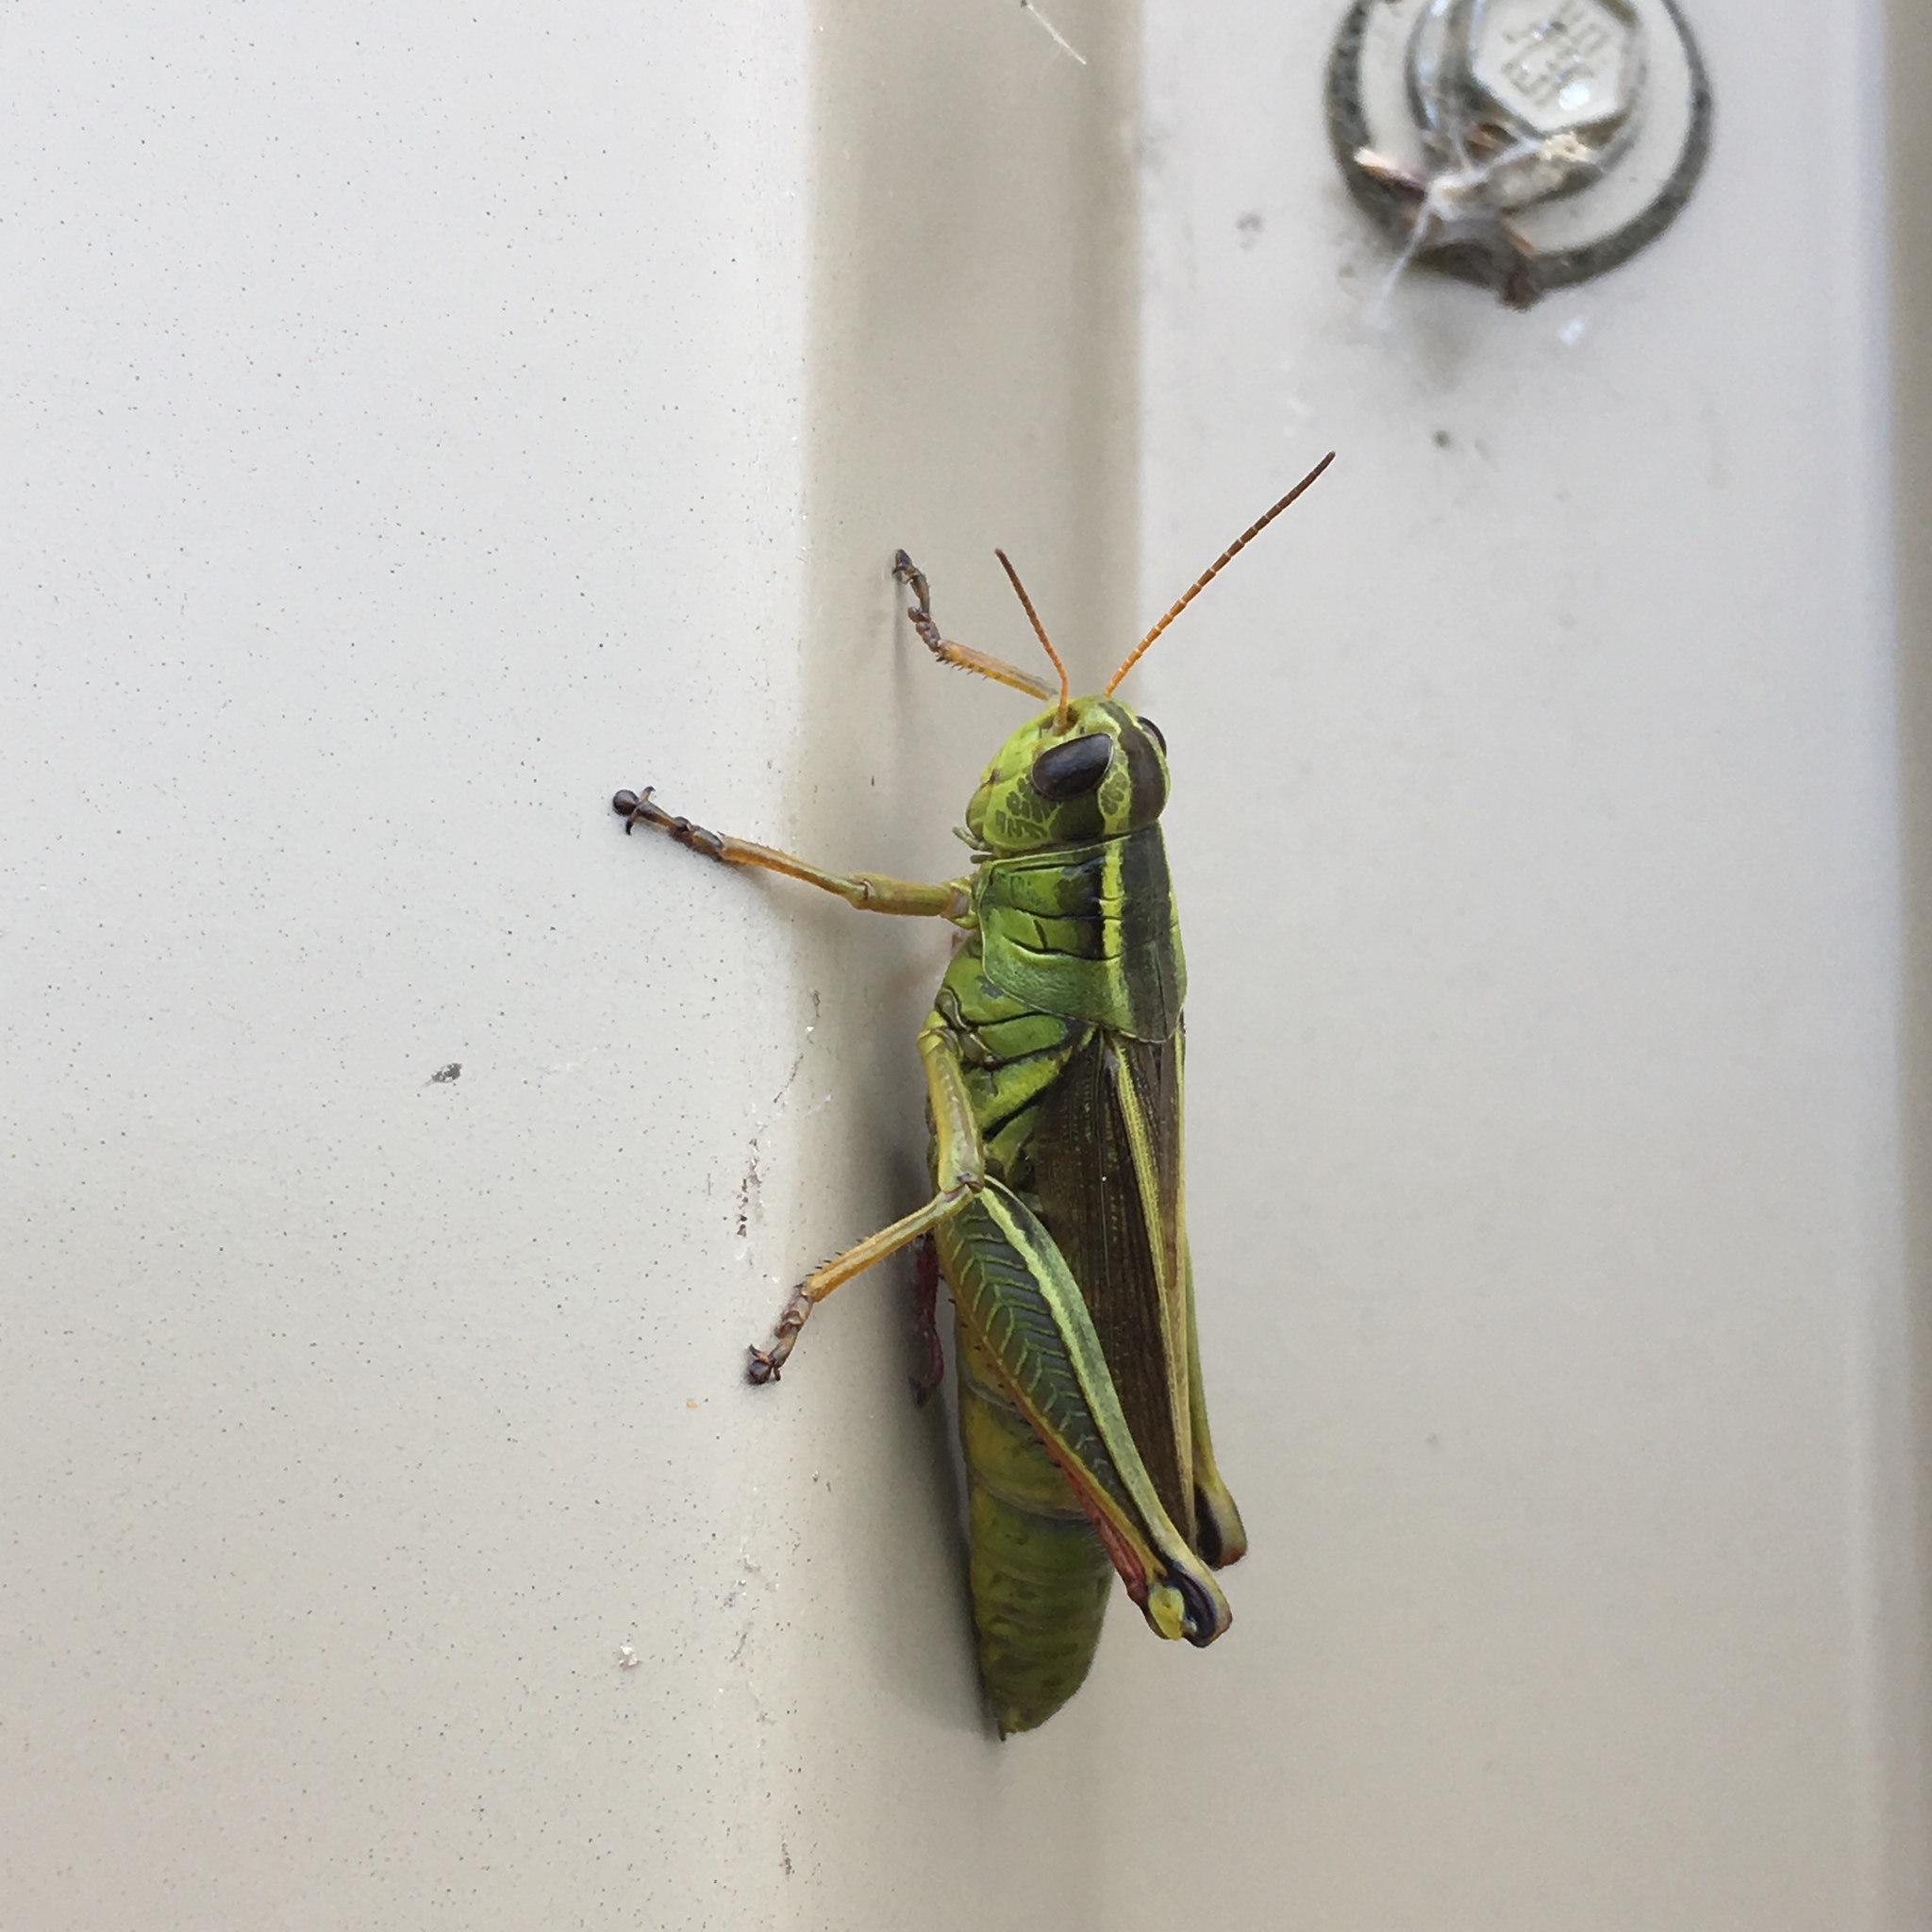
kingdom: Animalia
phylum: Arthropoda
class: Insecta
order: Orthoptera
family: Acrididae
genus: Melanoplus
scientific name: Melanoplus bivittatus
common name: Two-striped grasshopper
